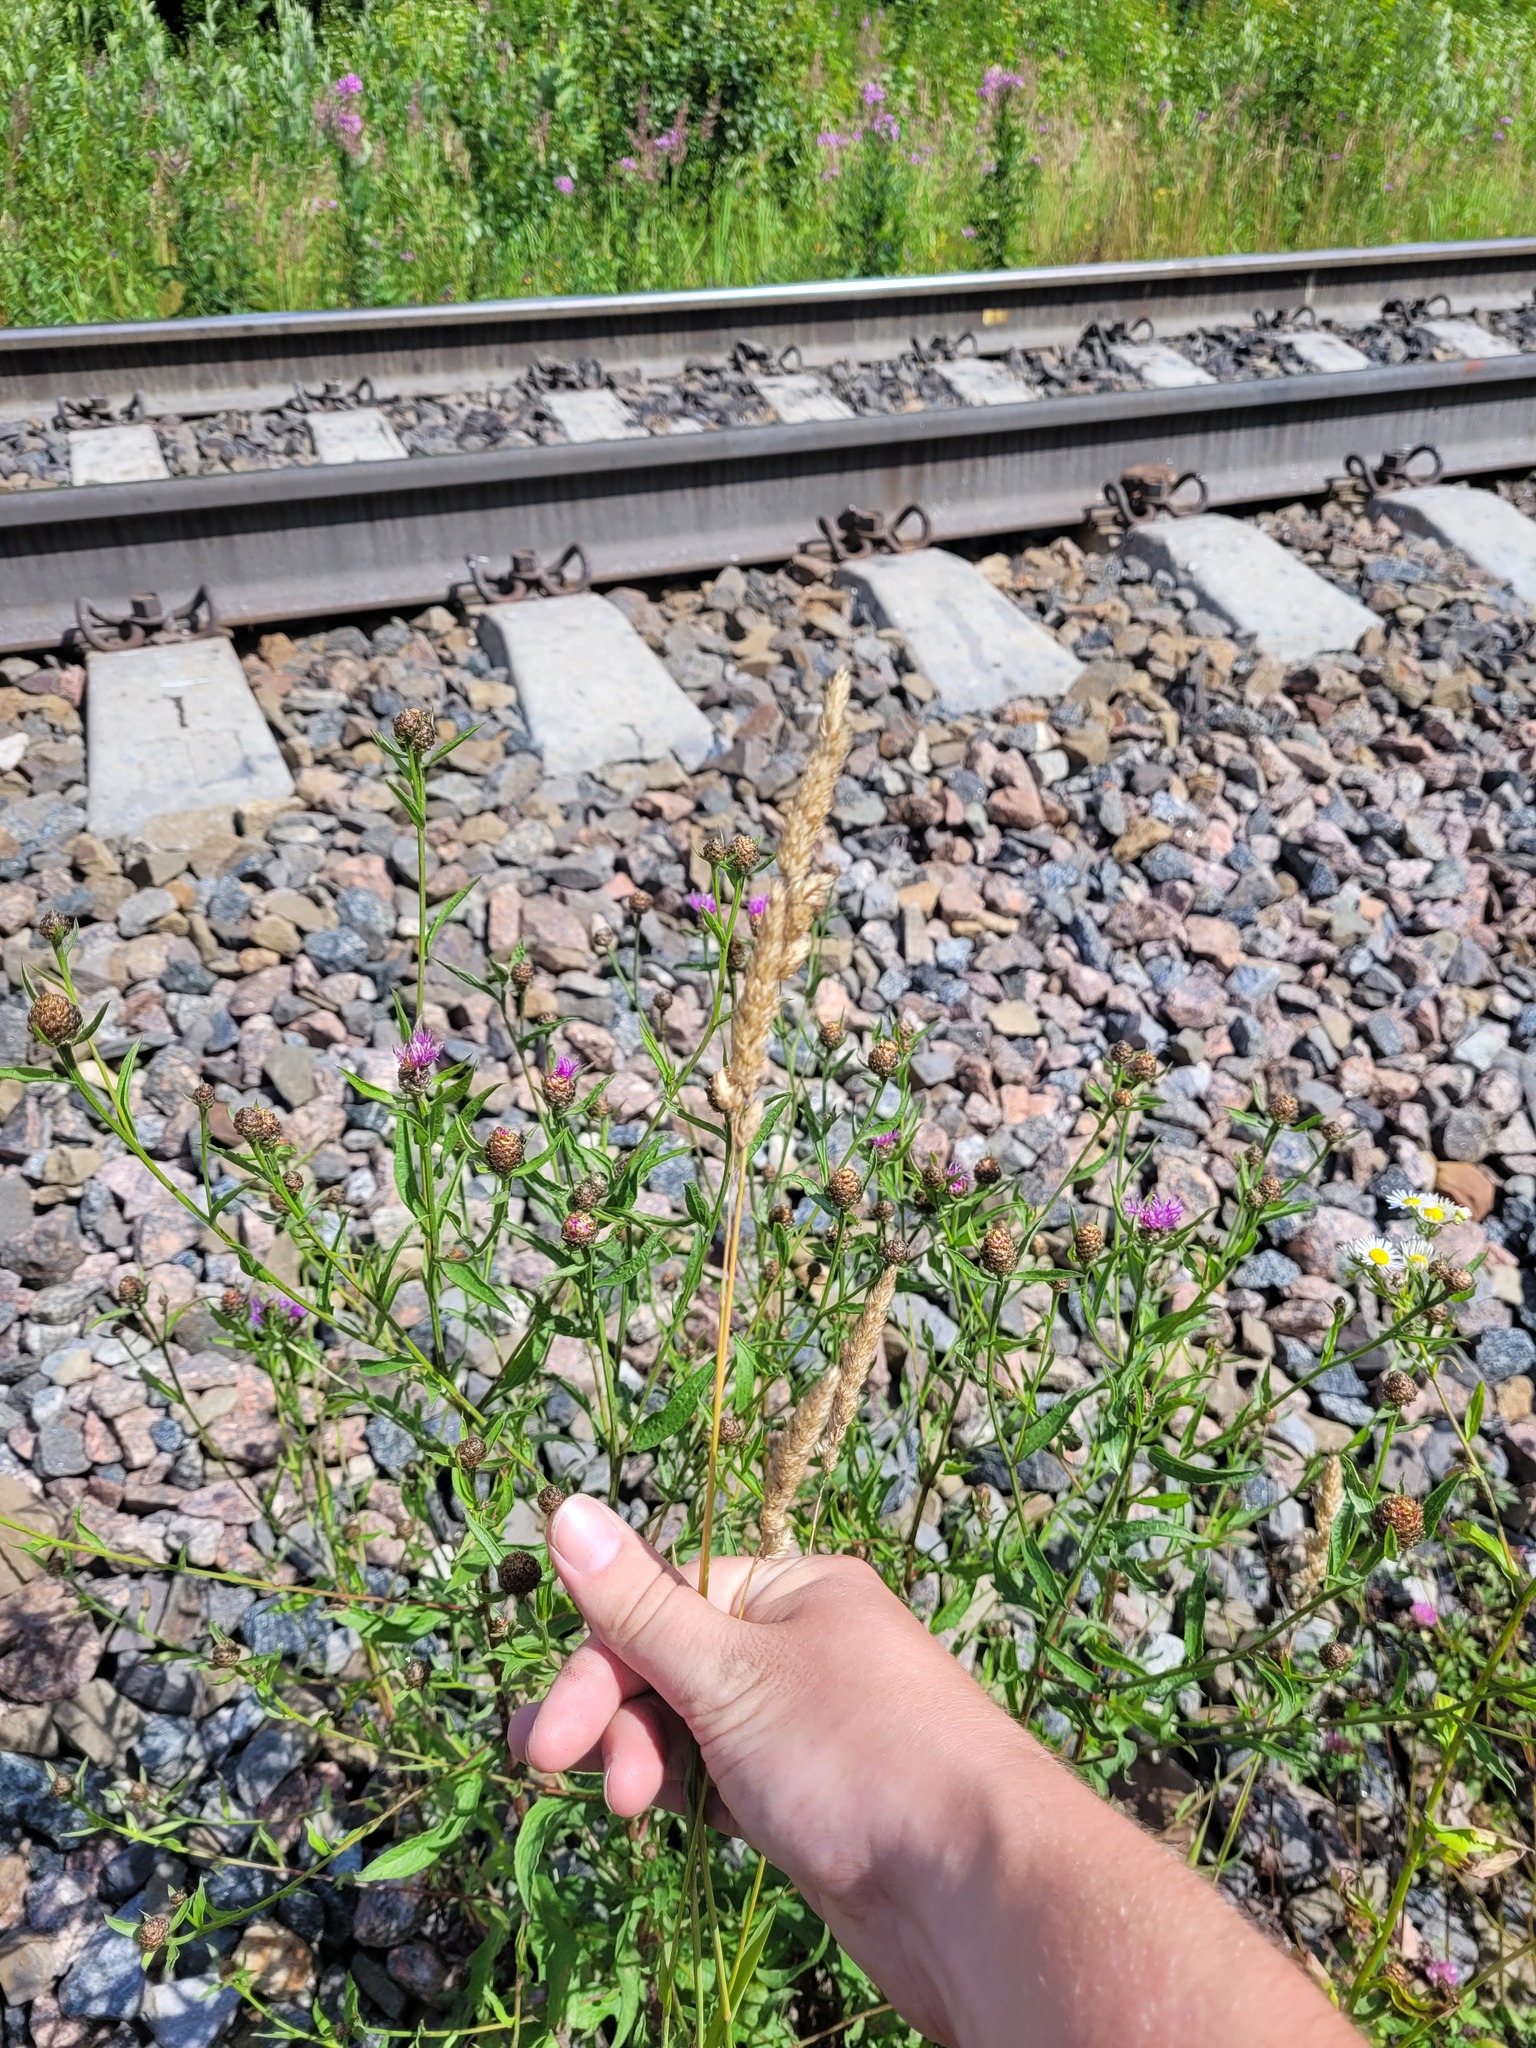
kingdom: Plantae
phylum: Tracheophyta
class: Liliopsida
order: Poales
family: Poaceae
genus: Dactylis
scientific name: Dactylis glomerata
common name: Orchardgrass
